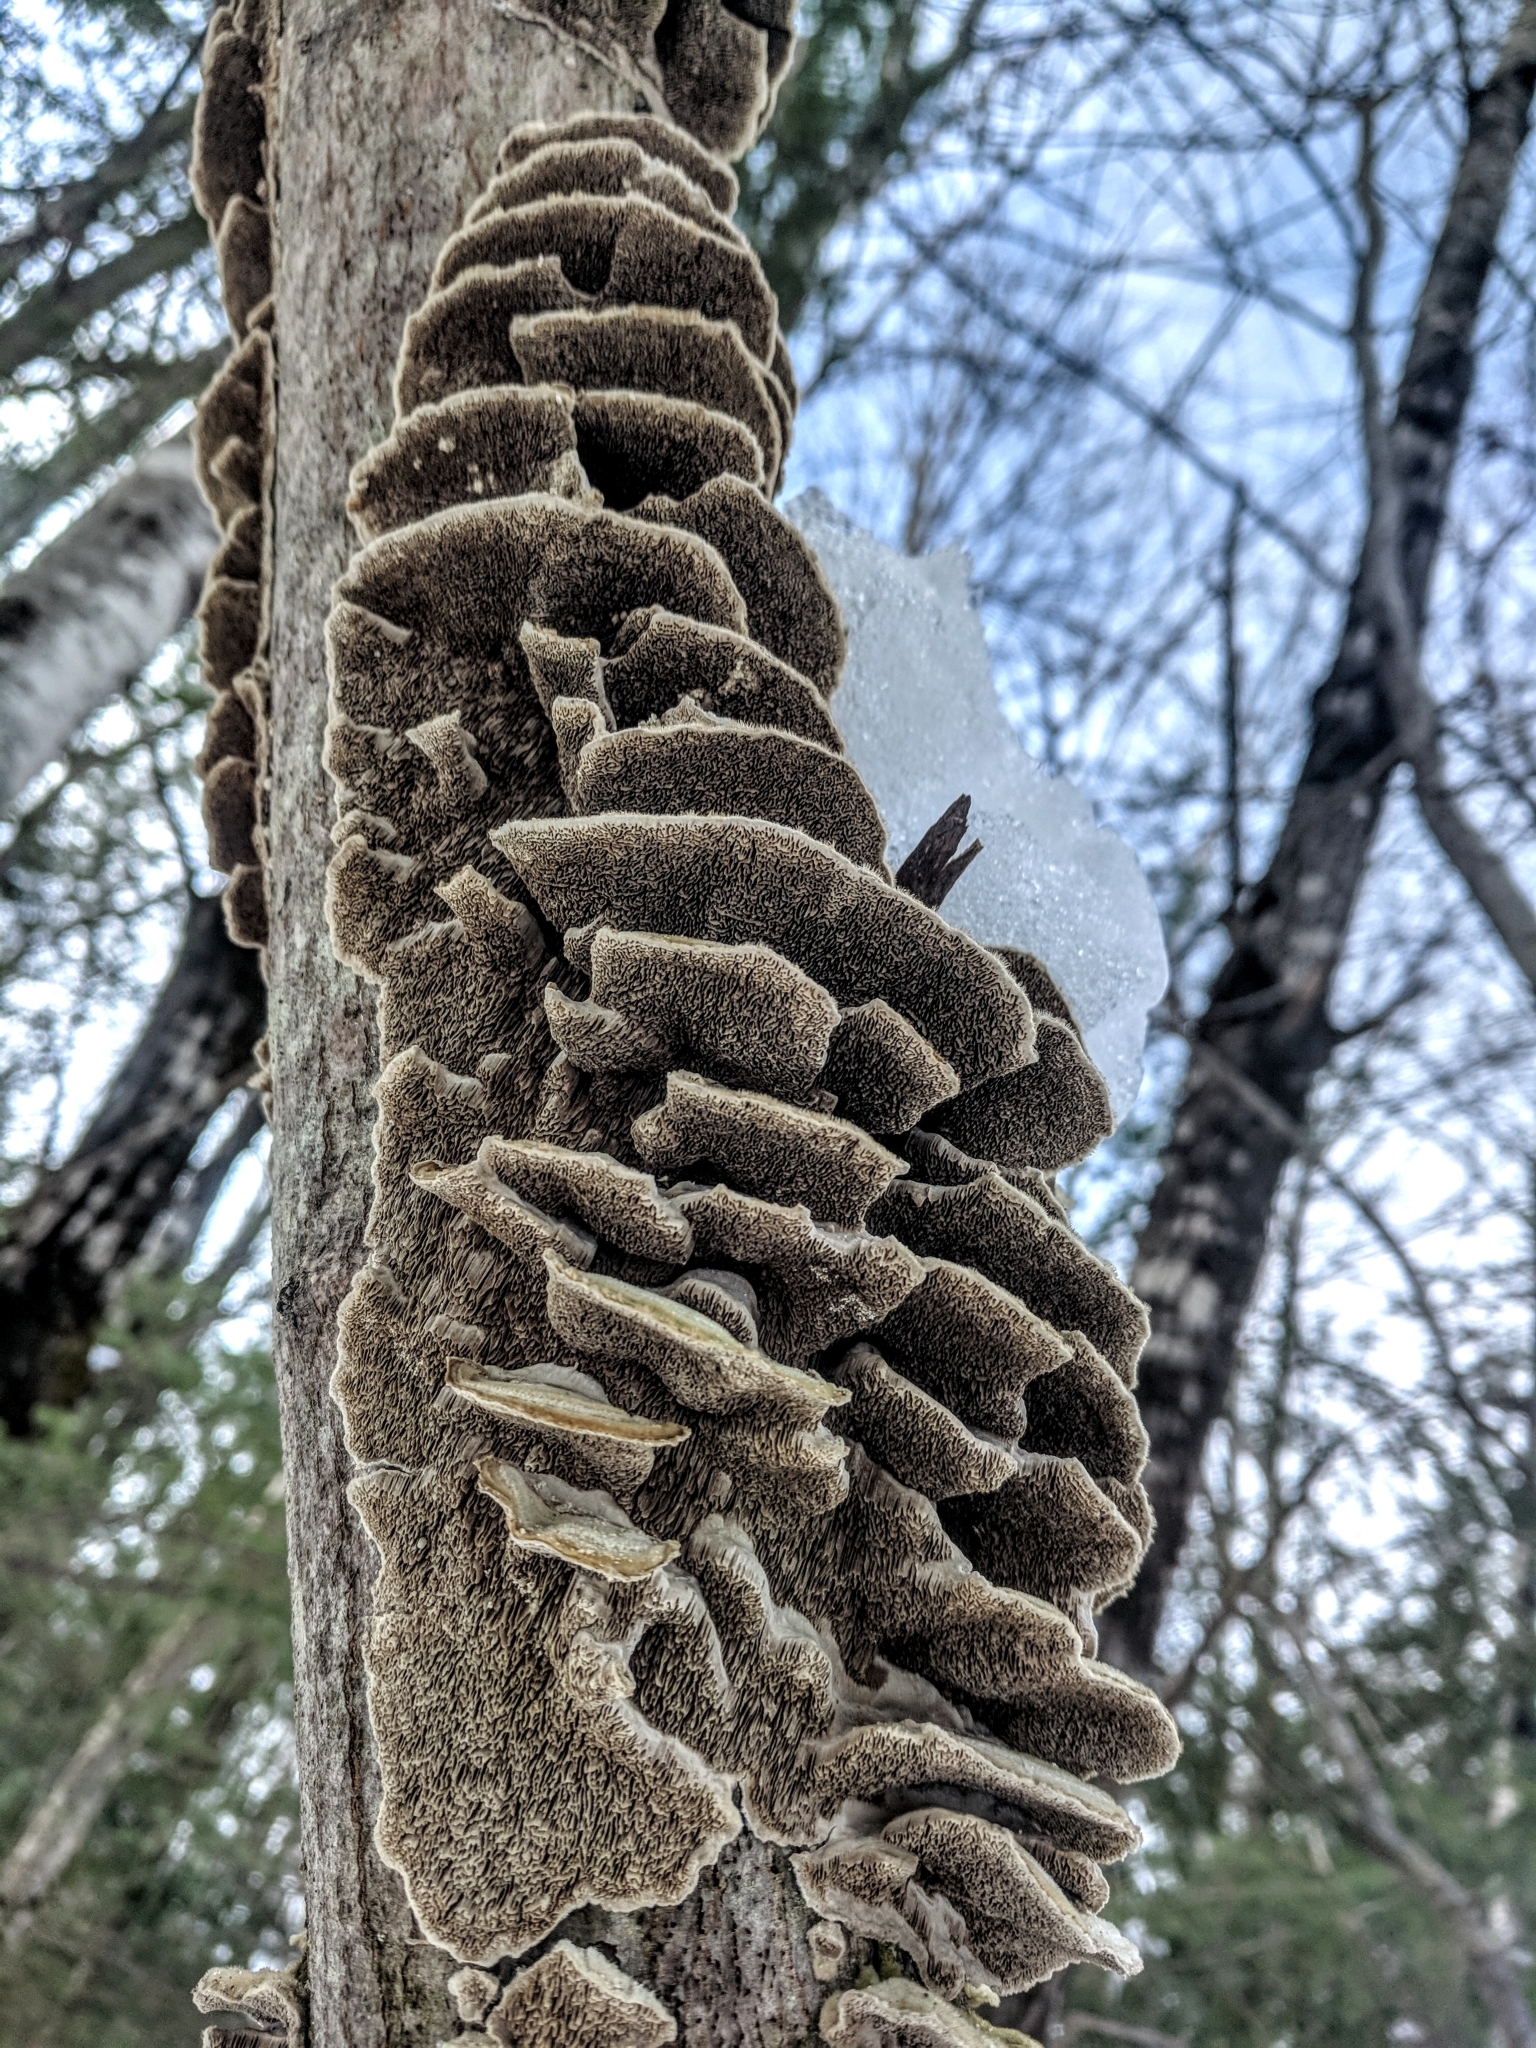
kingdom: Fungi
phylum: Basidiomycota
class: Agaricomycetes
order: Polyporales
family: Cerrenaceae
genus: Cerrena
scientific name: Cerrena unicolor
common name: Mossy maze polypore
